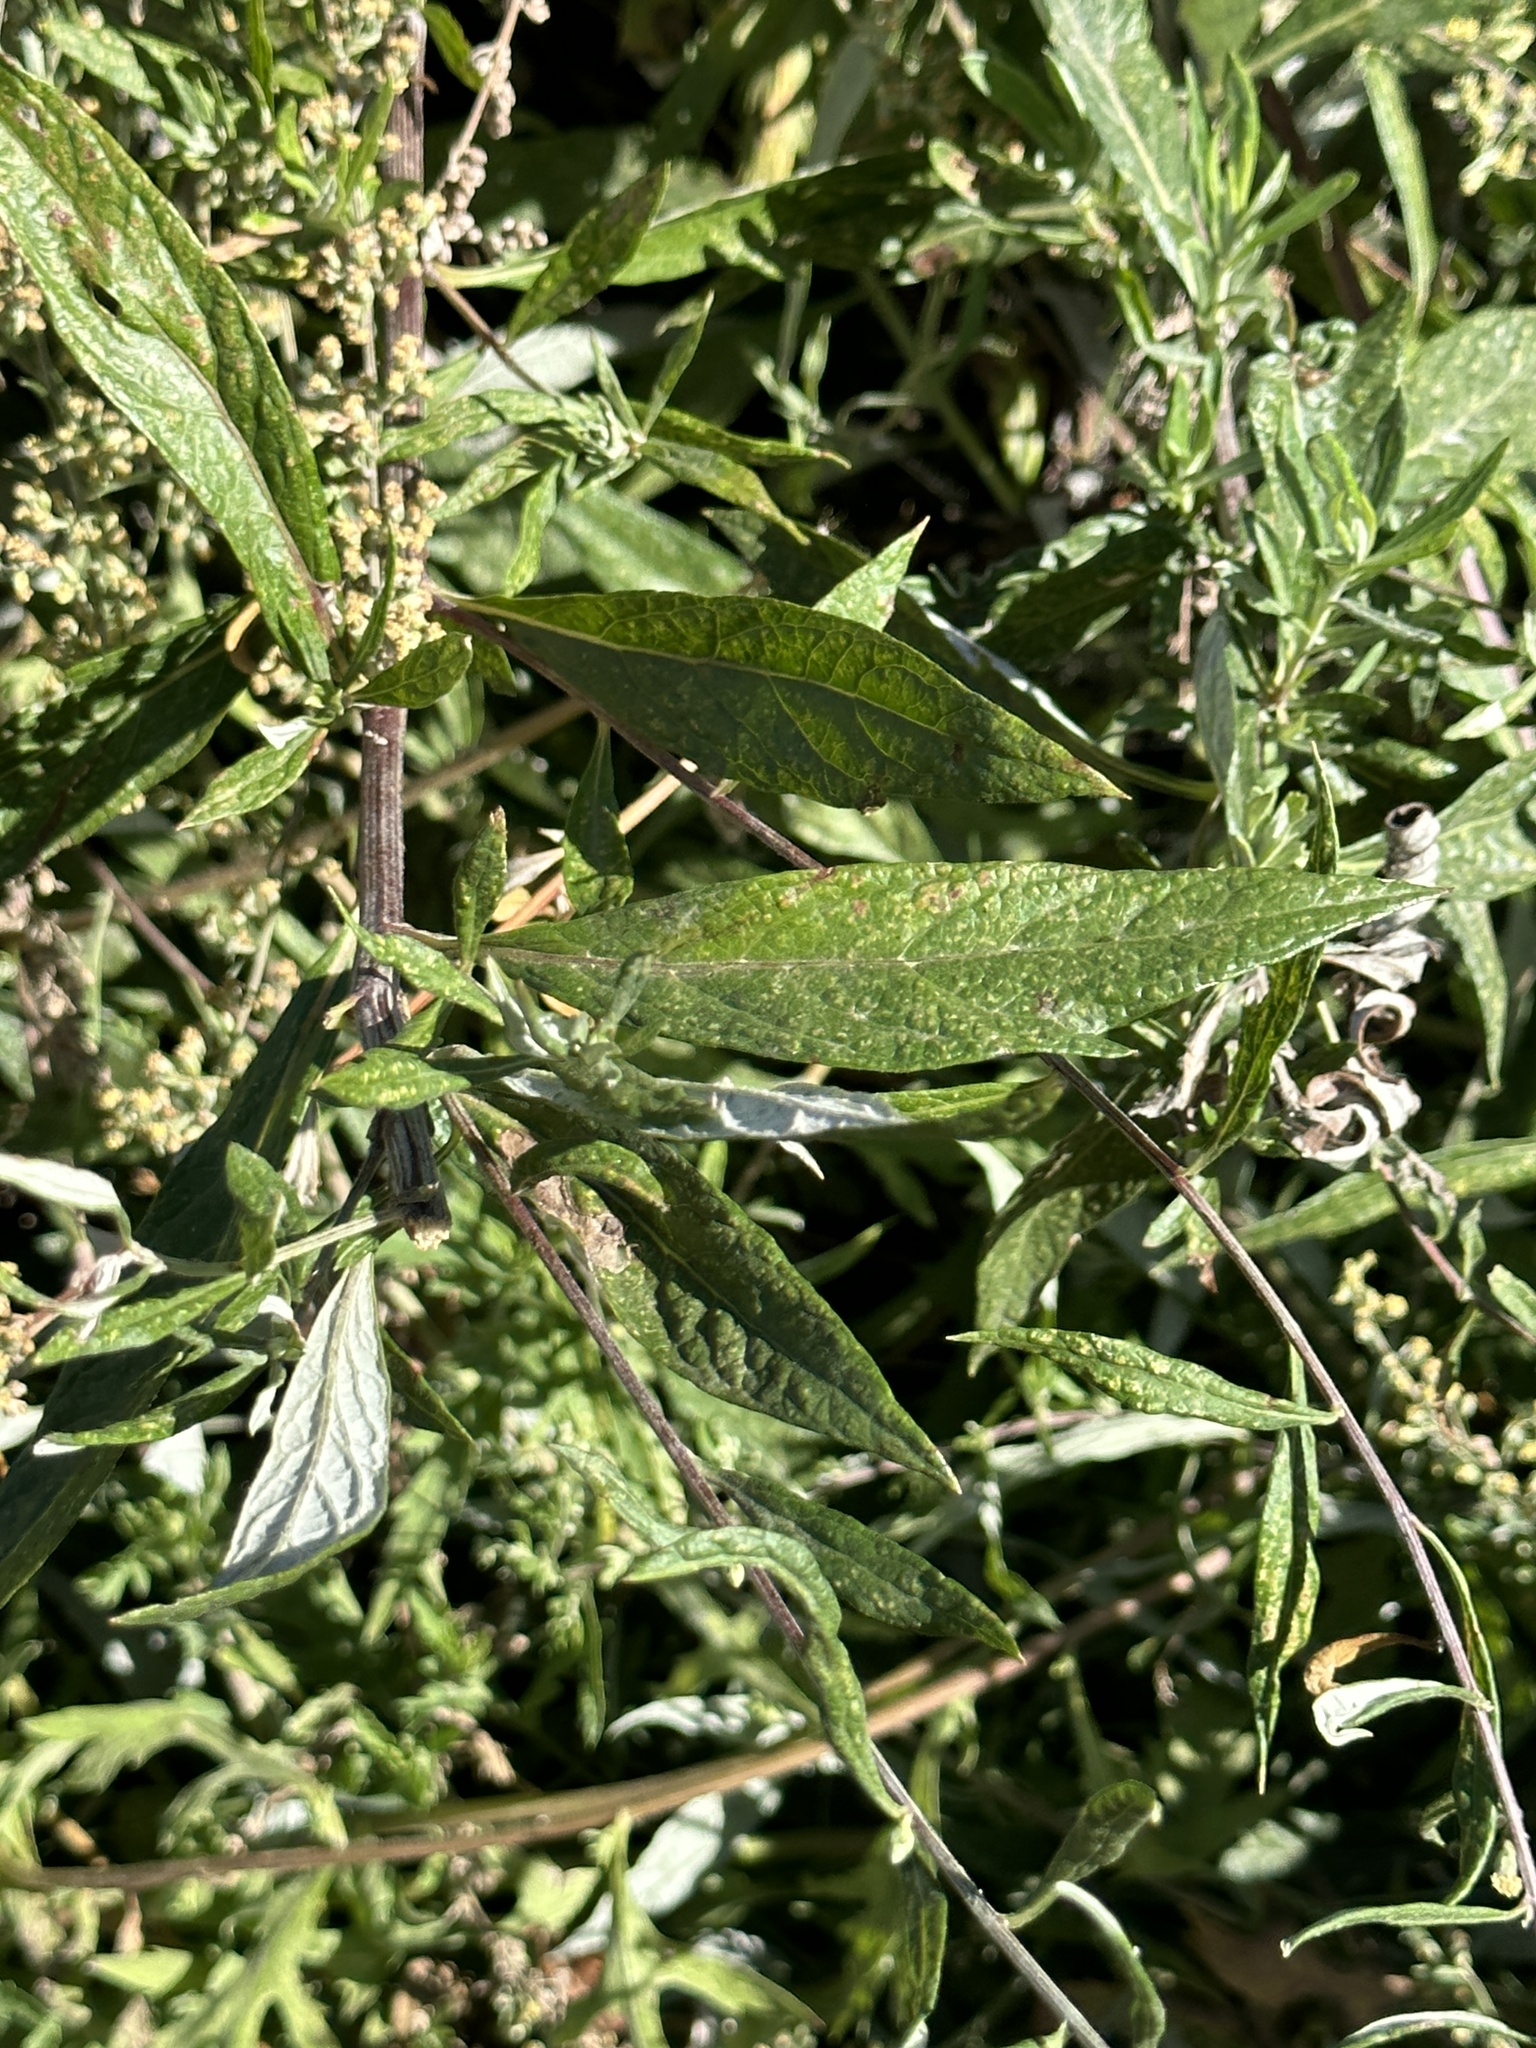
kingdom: Plantae
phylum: Tracheophyta
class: Magnoliopsida
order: Asterales
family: Asteraceae
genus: Artemisia
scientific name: Artemisia douglasiana
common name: Northwest mugwort
